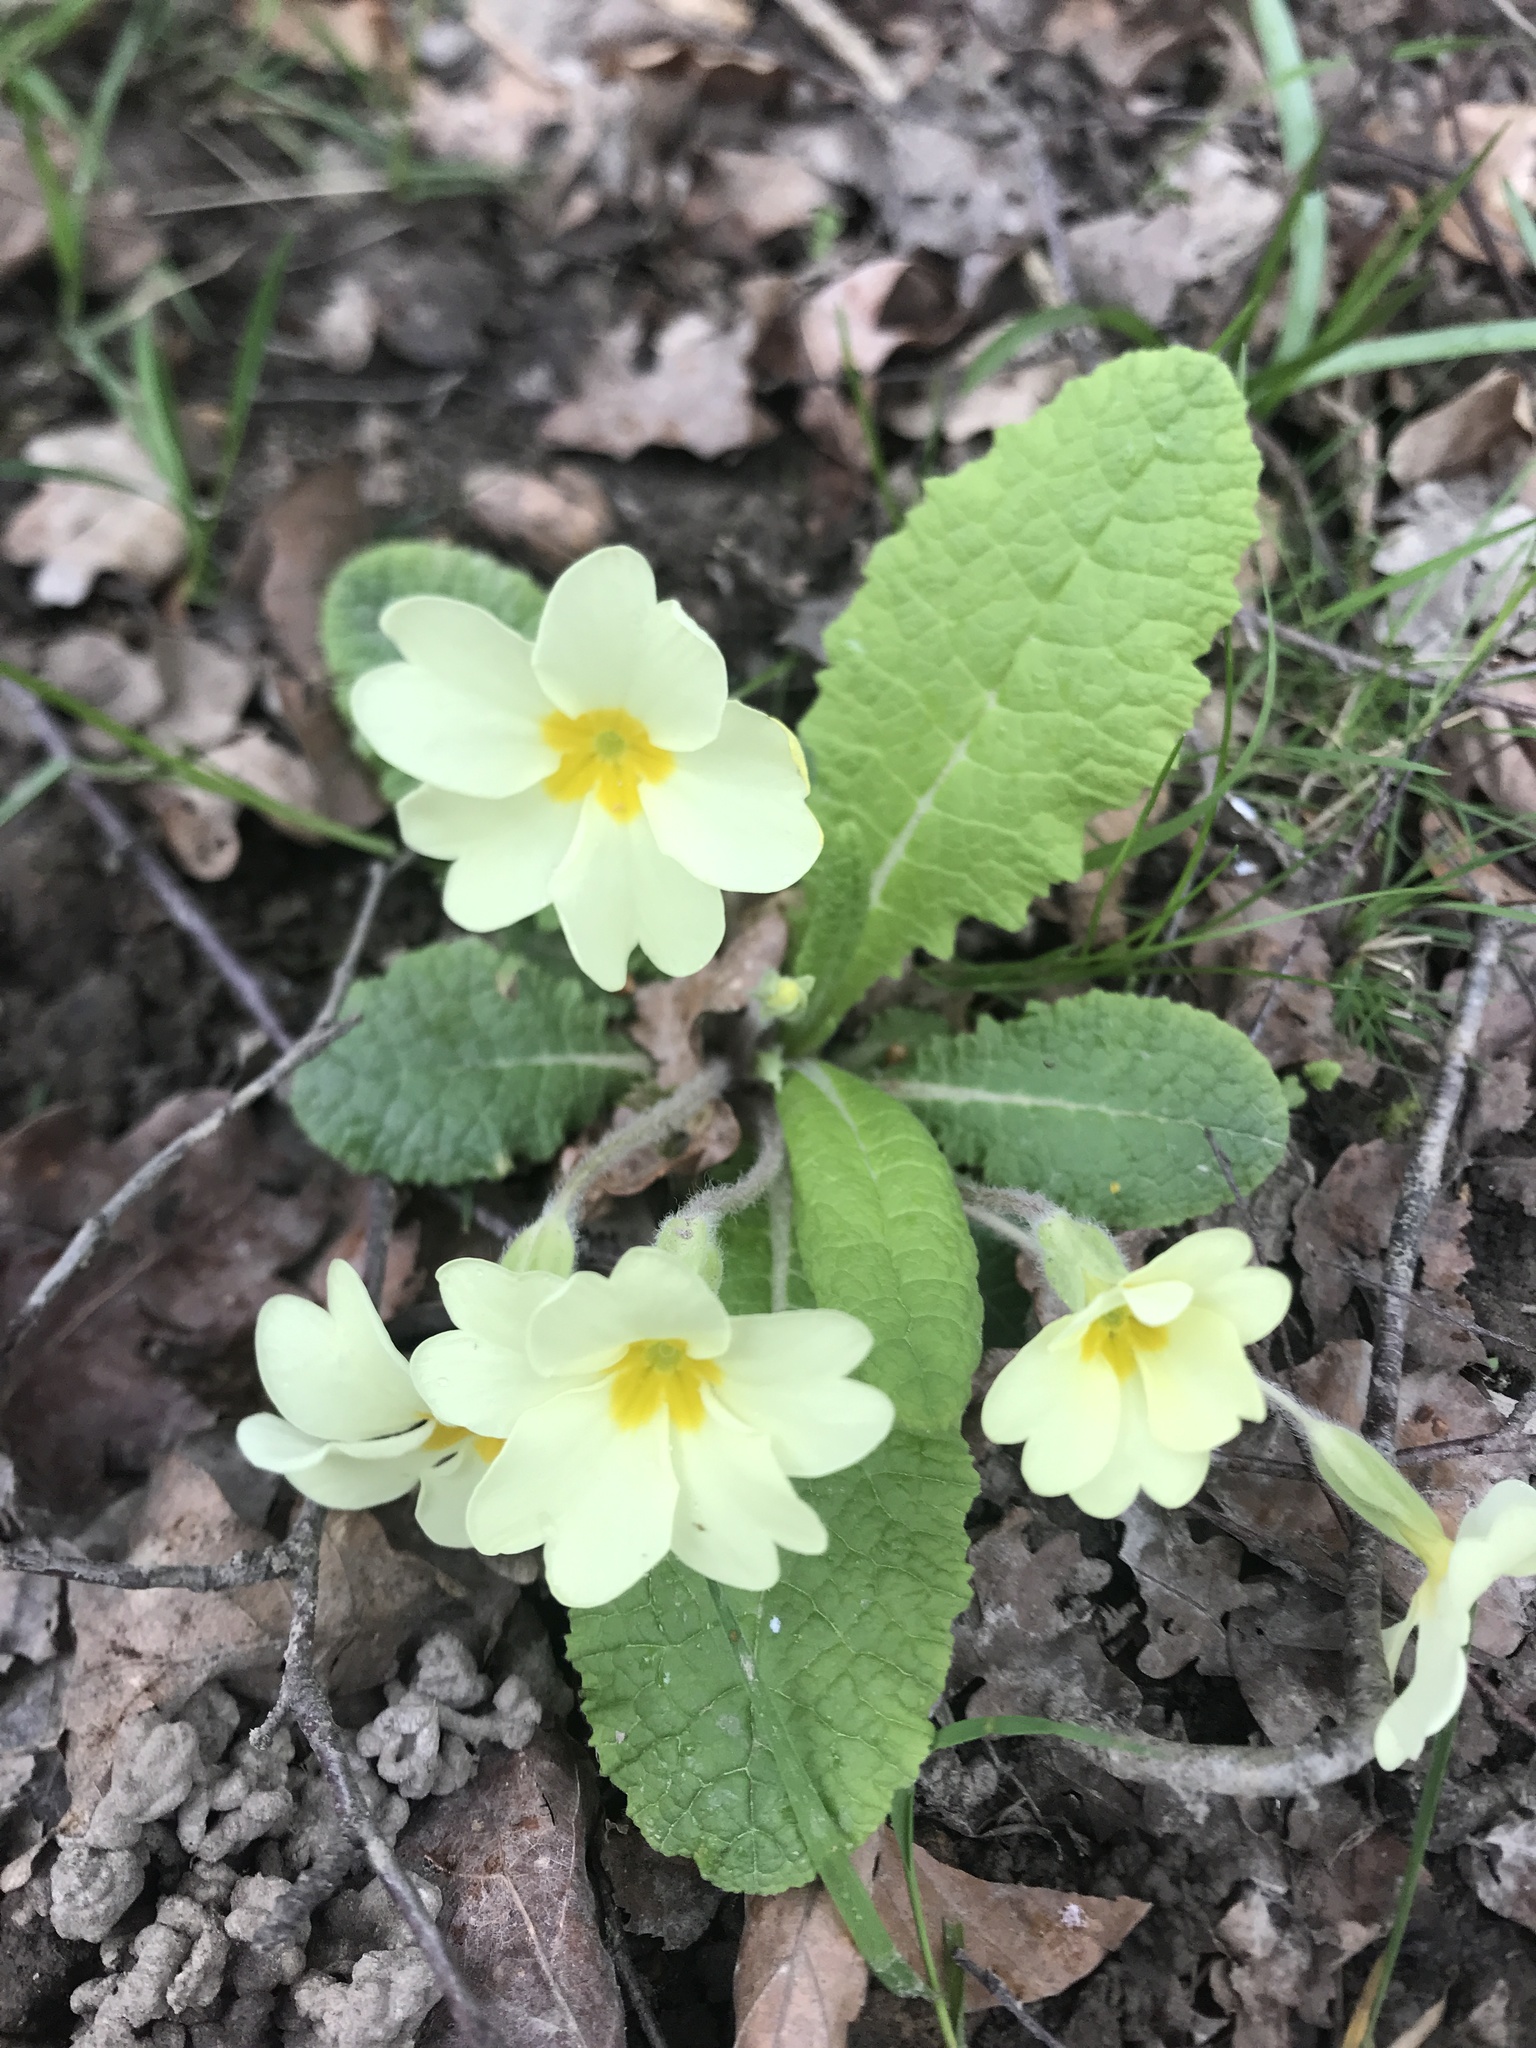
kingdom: Plantae
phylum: Tracheophyta
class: Magnoliopsida
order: Ericales
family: Primulaceae
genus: Primula
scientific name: Primula vulgaris
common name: Primrose
